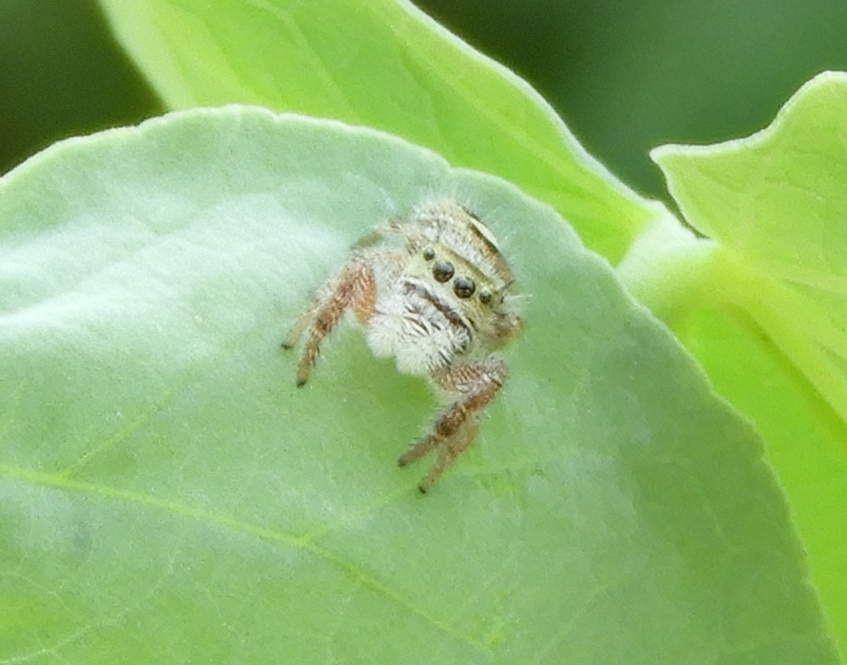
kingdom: Animalia
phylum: Arthropoda
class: Arachnida
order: Araneae
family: Salticidae
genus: Phidippus
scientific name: Phidippus pacosauritus
